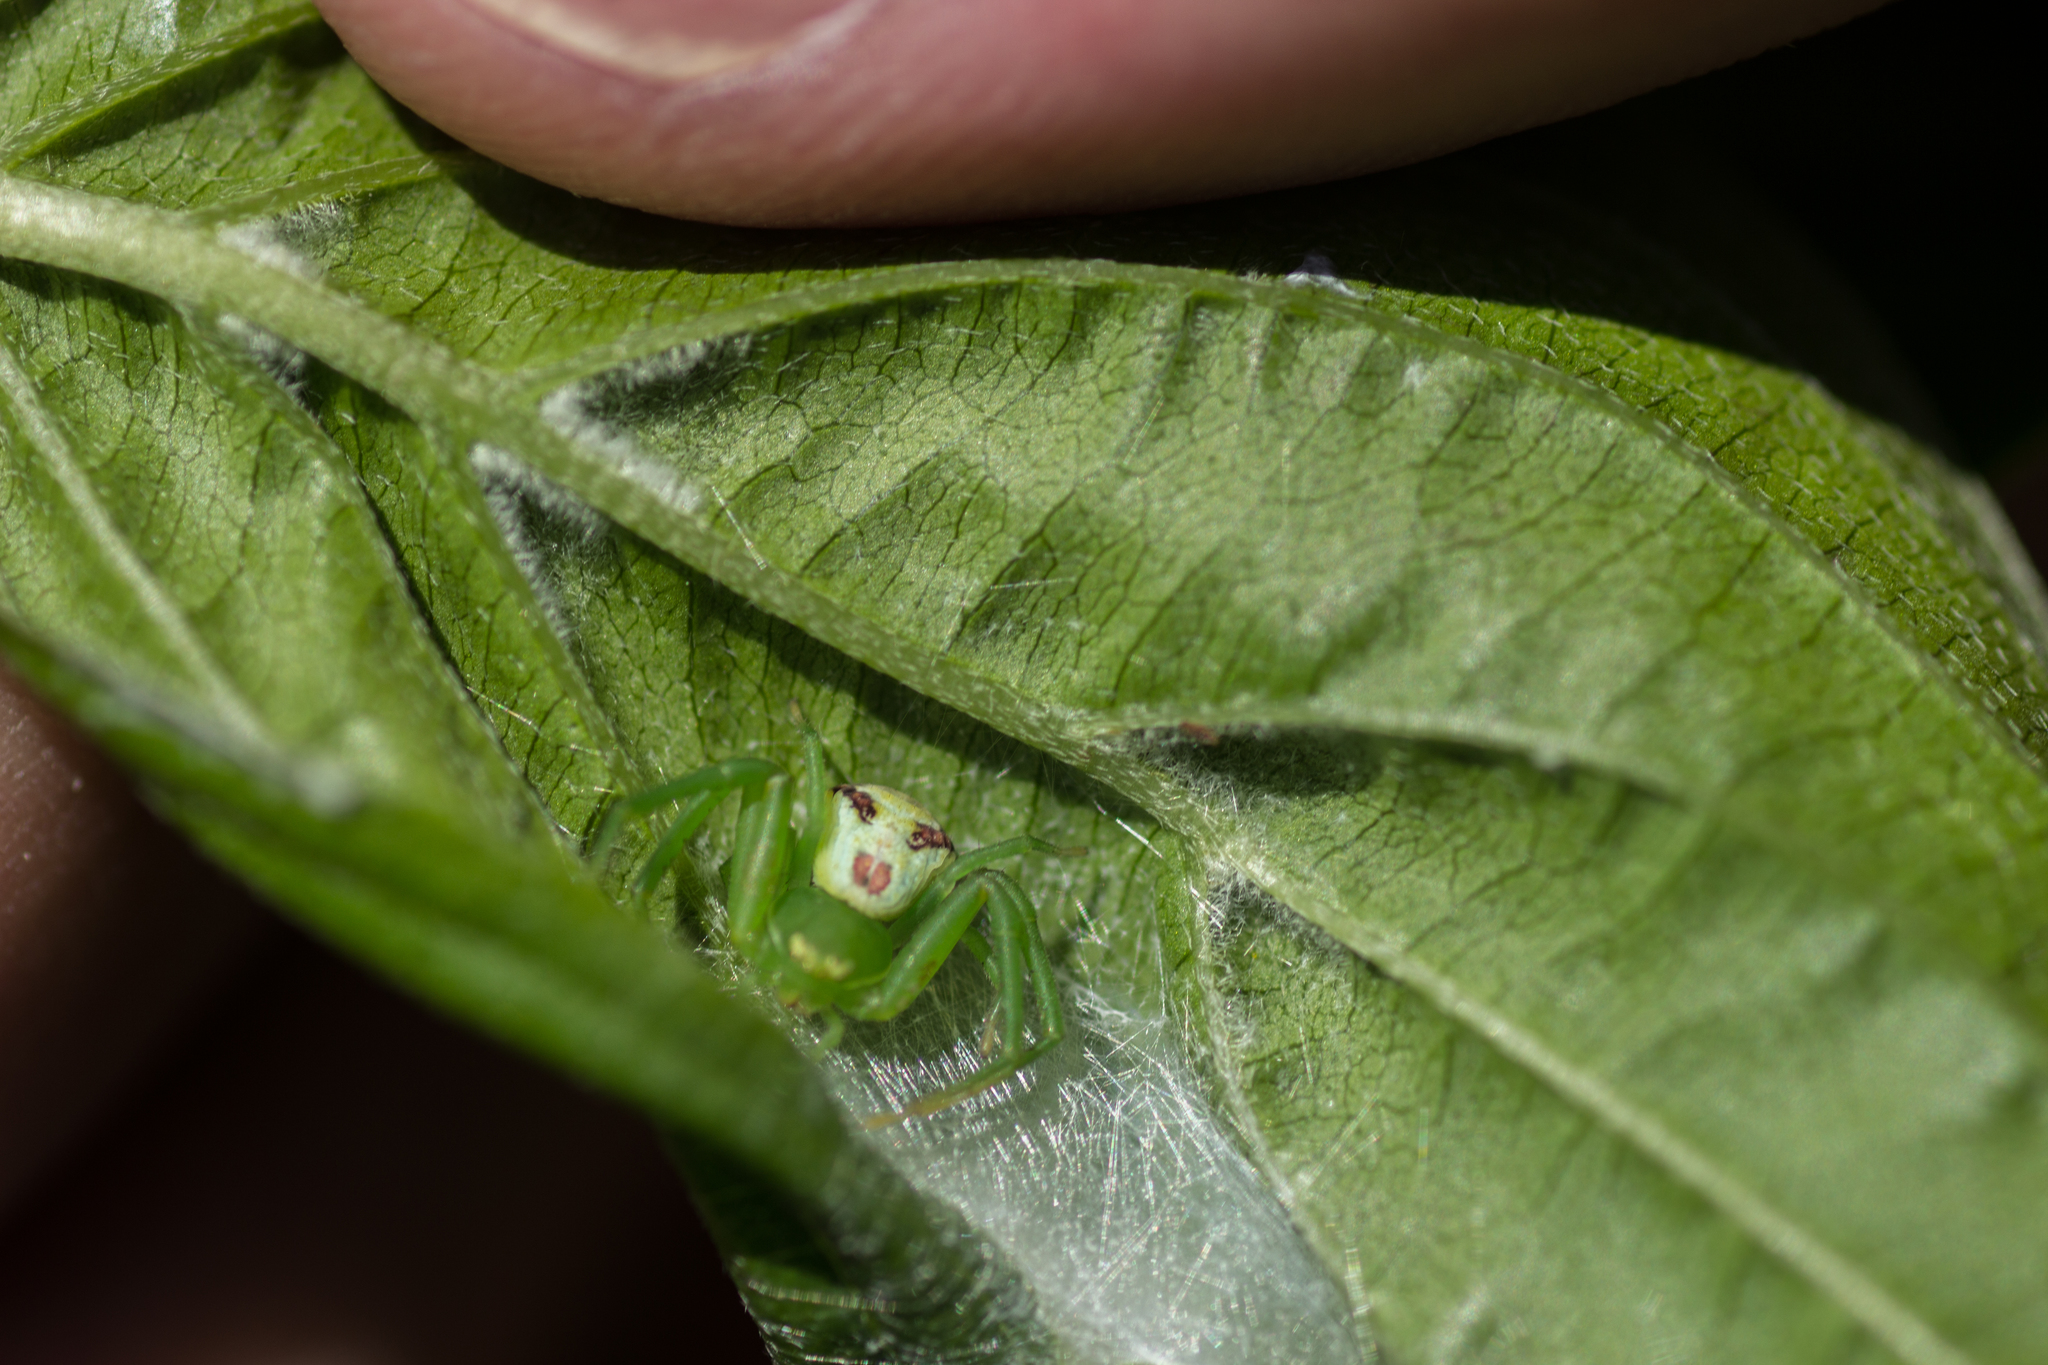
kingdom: Animalia
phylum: Arthropoda
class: Arachnida
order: Araneae
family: Thomisidae
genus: Ebrechtella
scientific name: Ebrechtella tricuspidata
